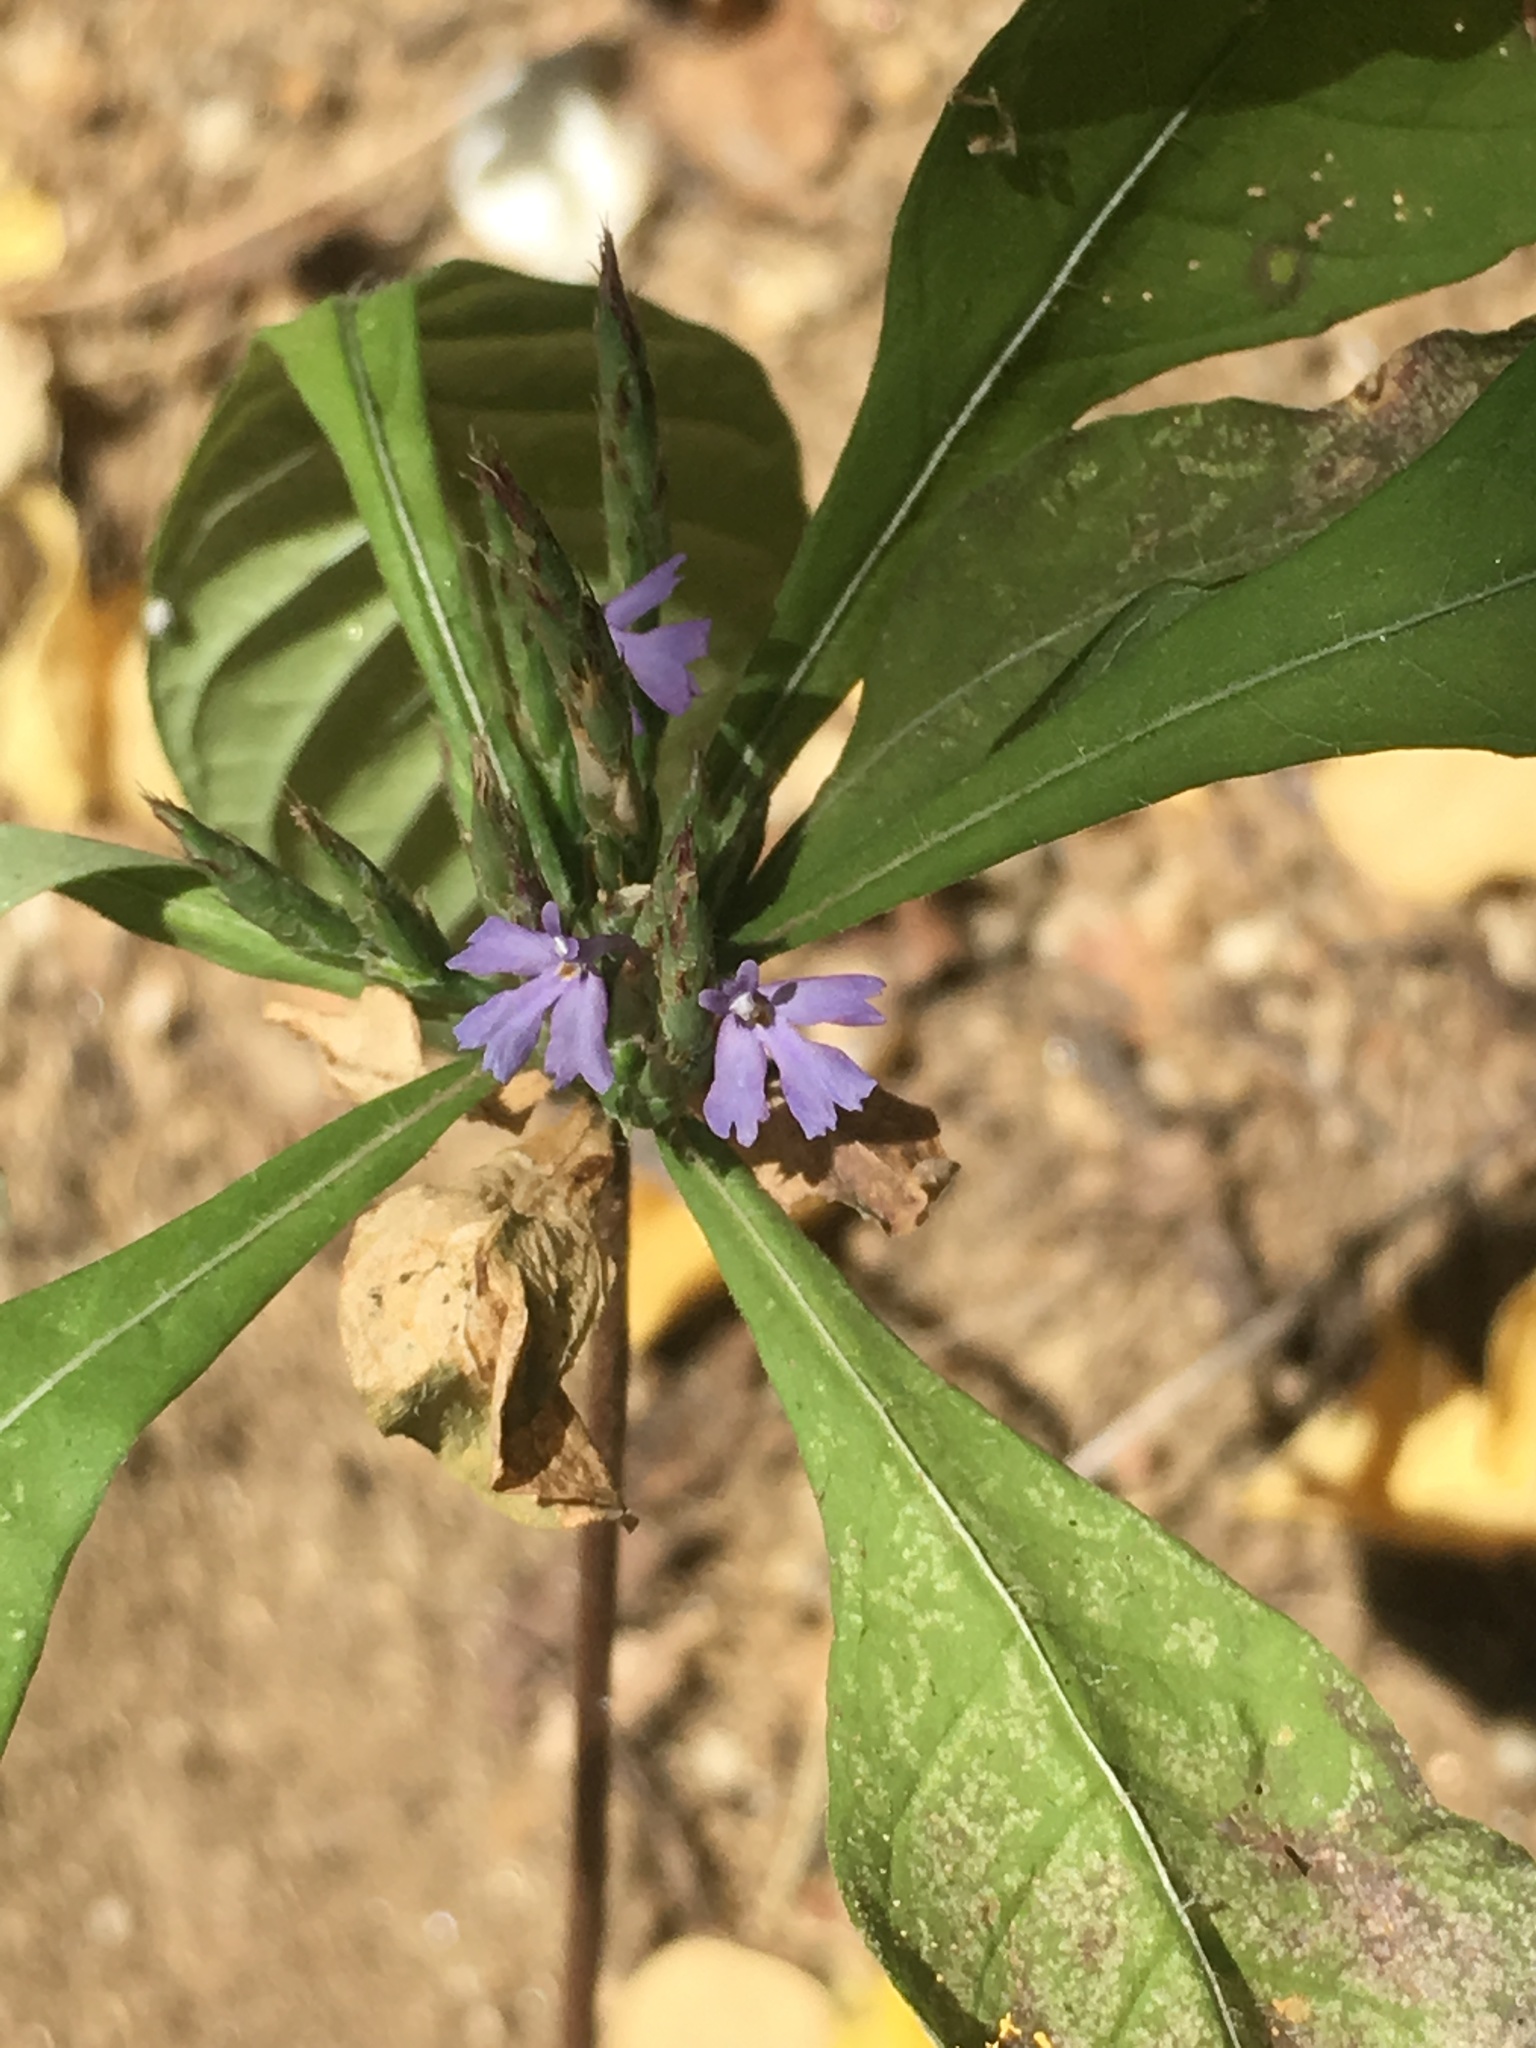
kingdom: Plantae
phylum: Tracheophyta
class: Magnoliopsida
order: Lamiales
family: Acanthaceae
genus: Elytraria
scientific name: Elytraria imbricata
